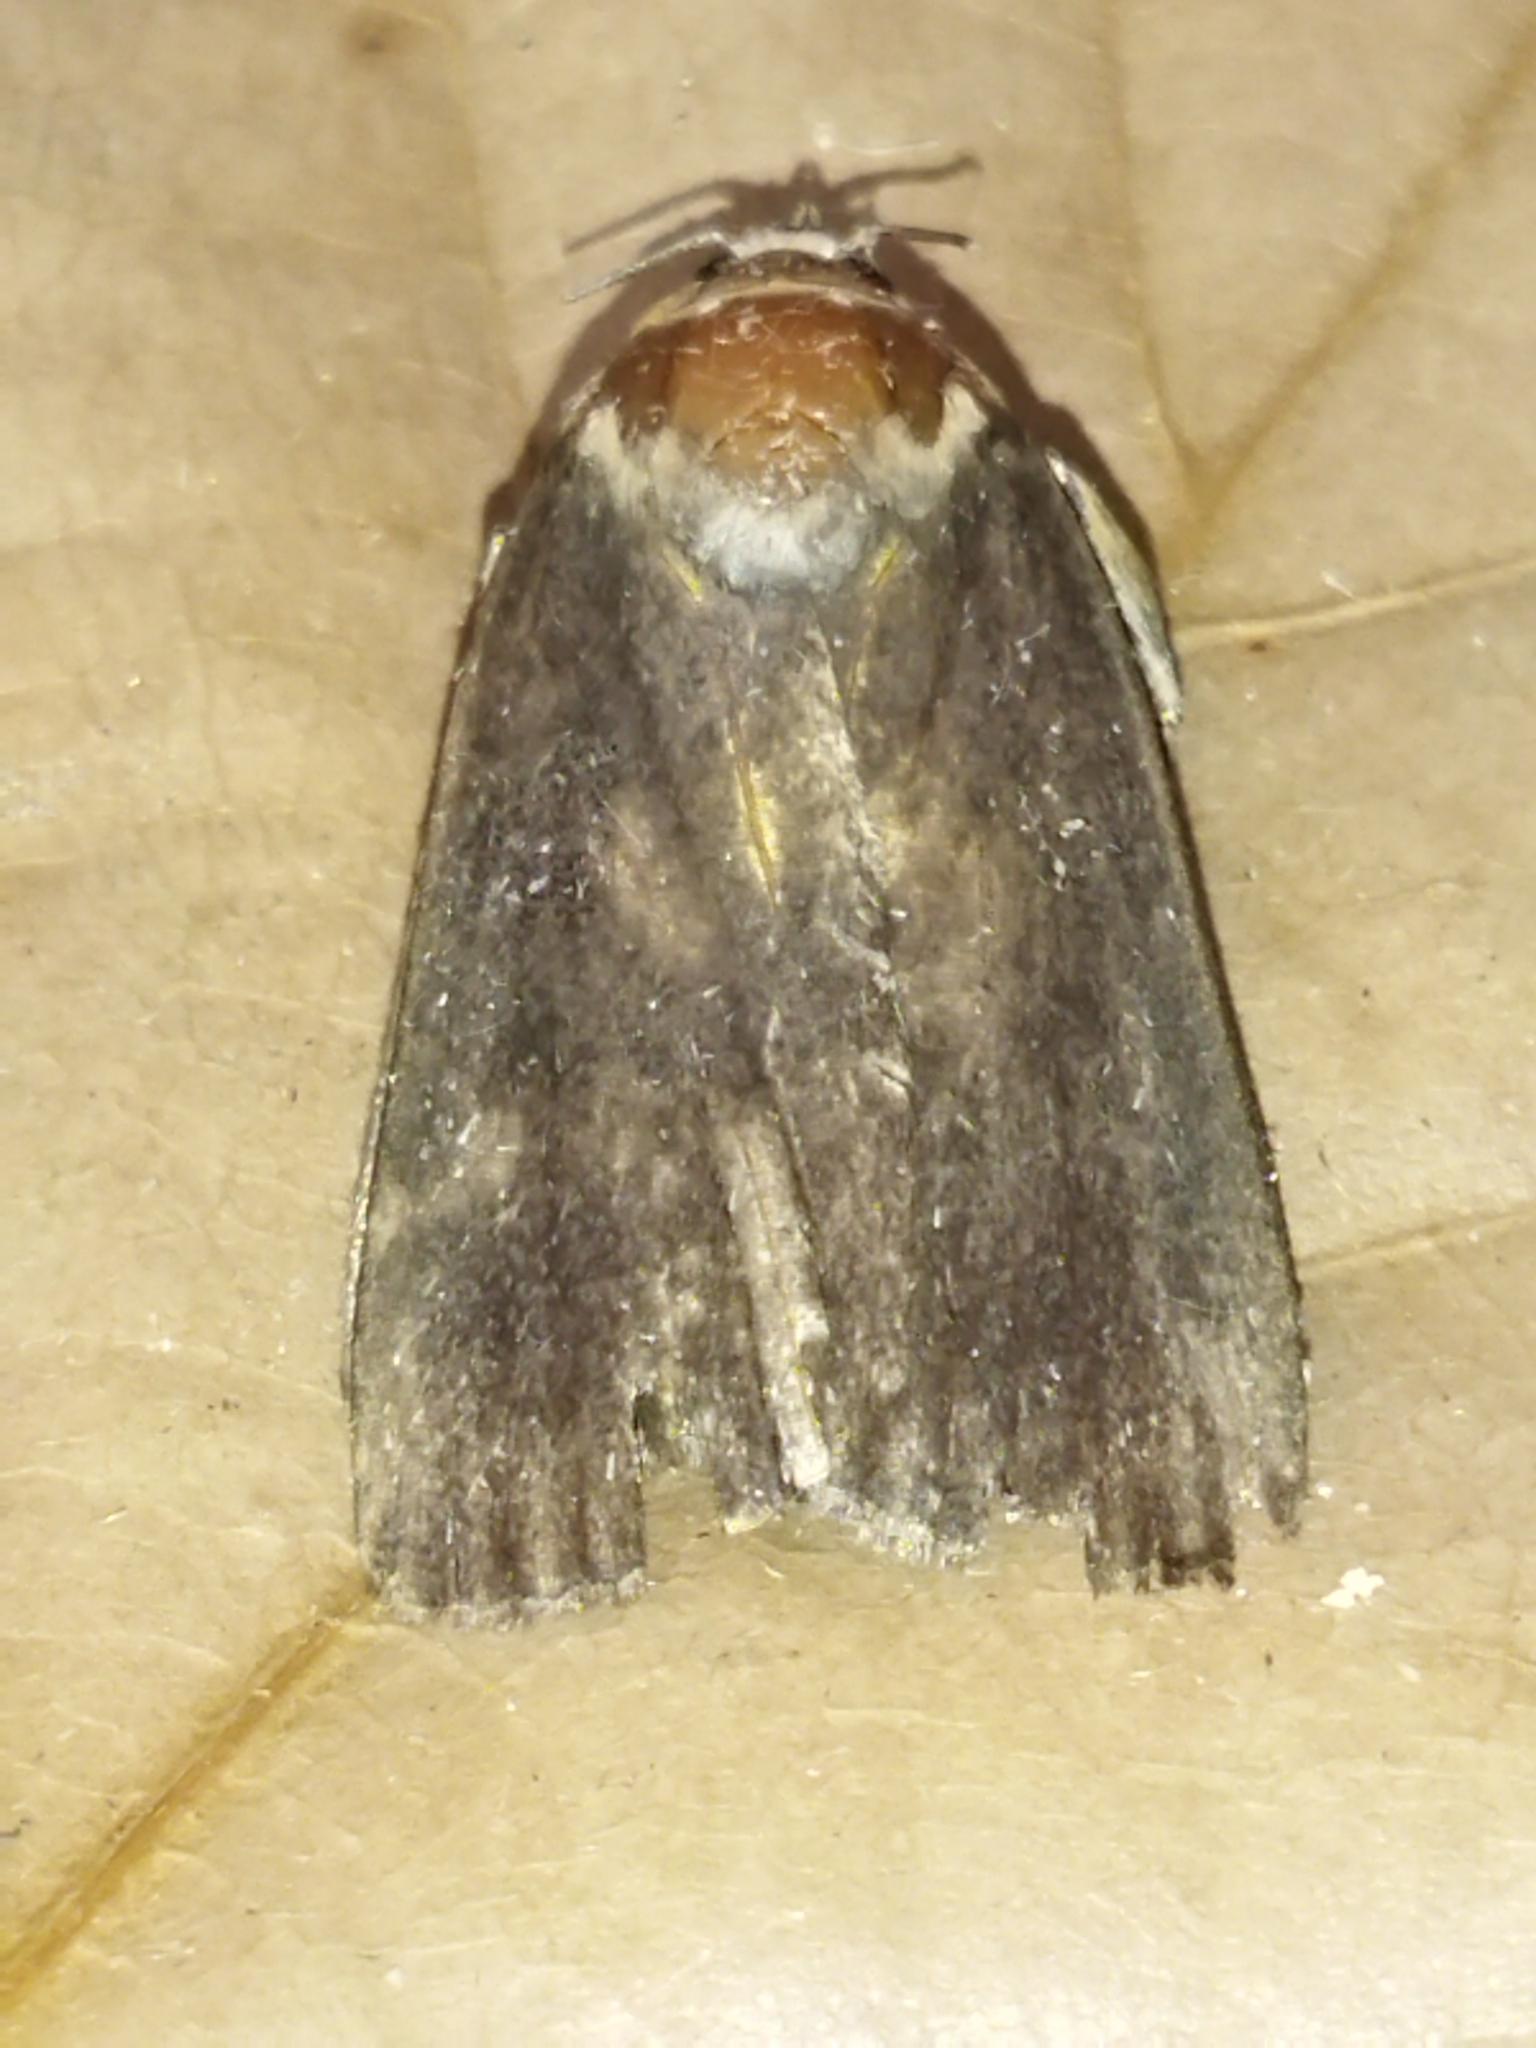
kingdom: Animalia
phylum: Arthropoda
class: Insecta
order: Lepidoptera
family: Noctuidae
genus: Amphipyra
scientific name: Amphipyra livida
